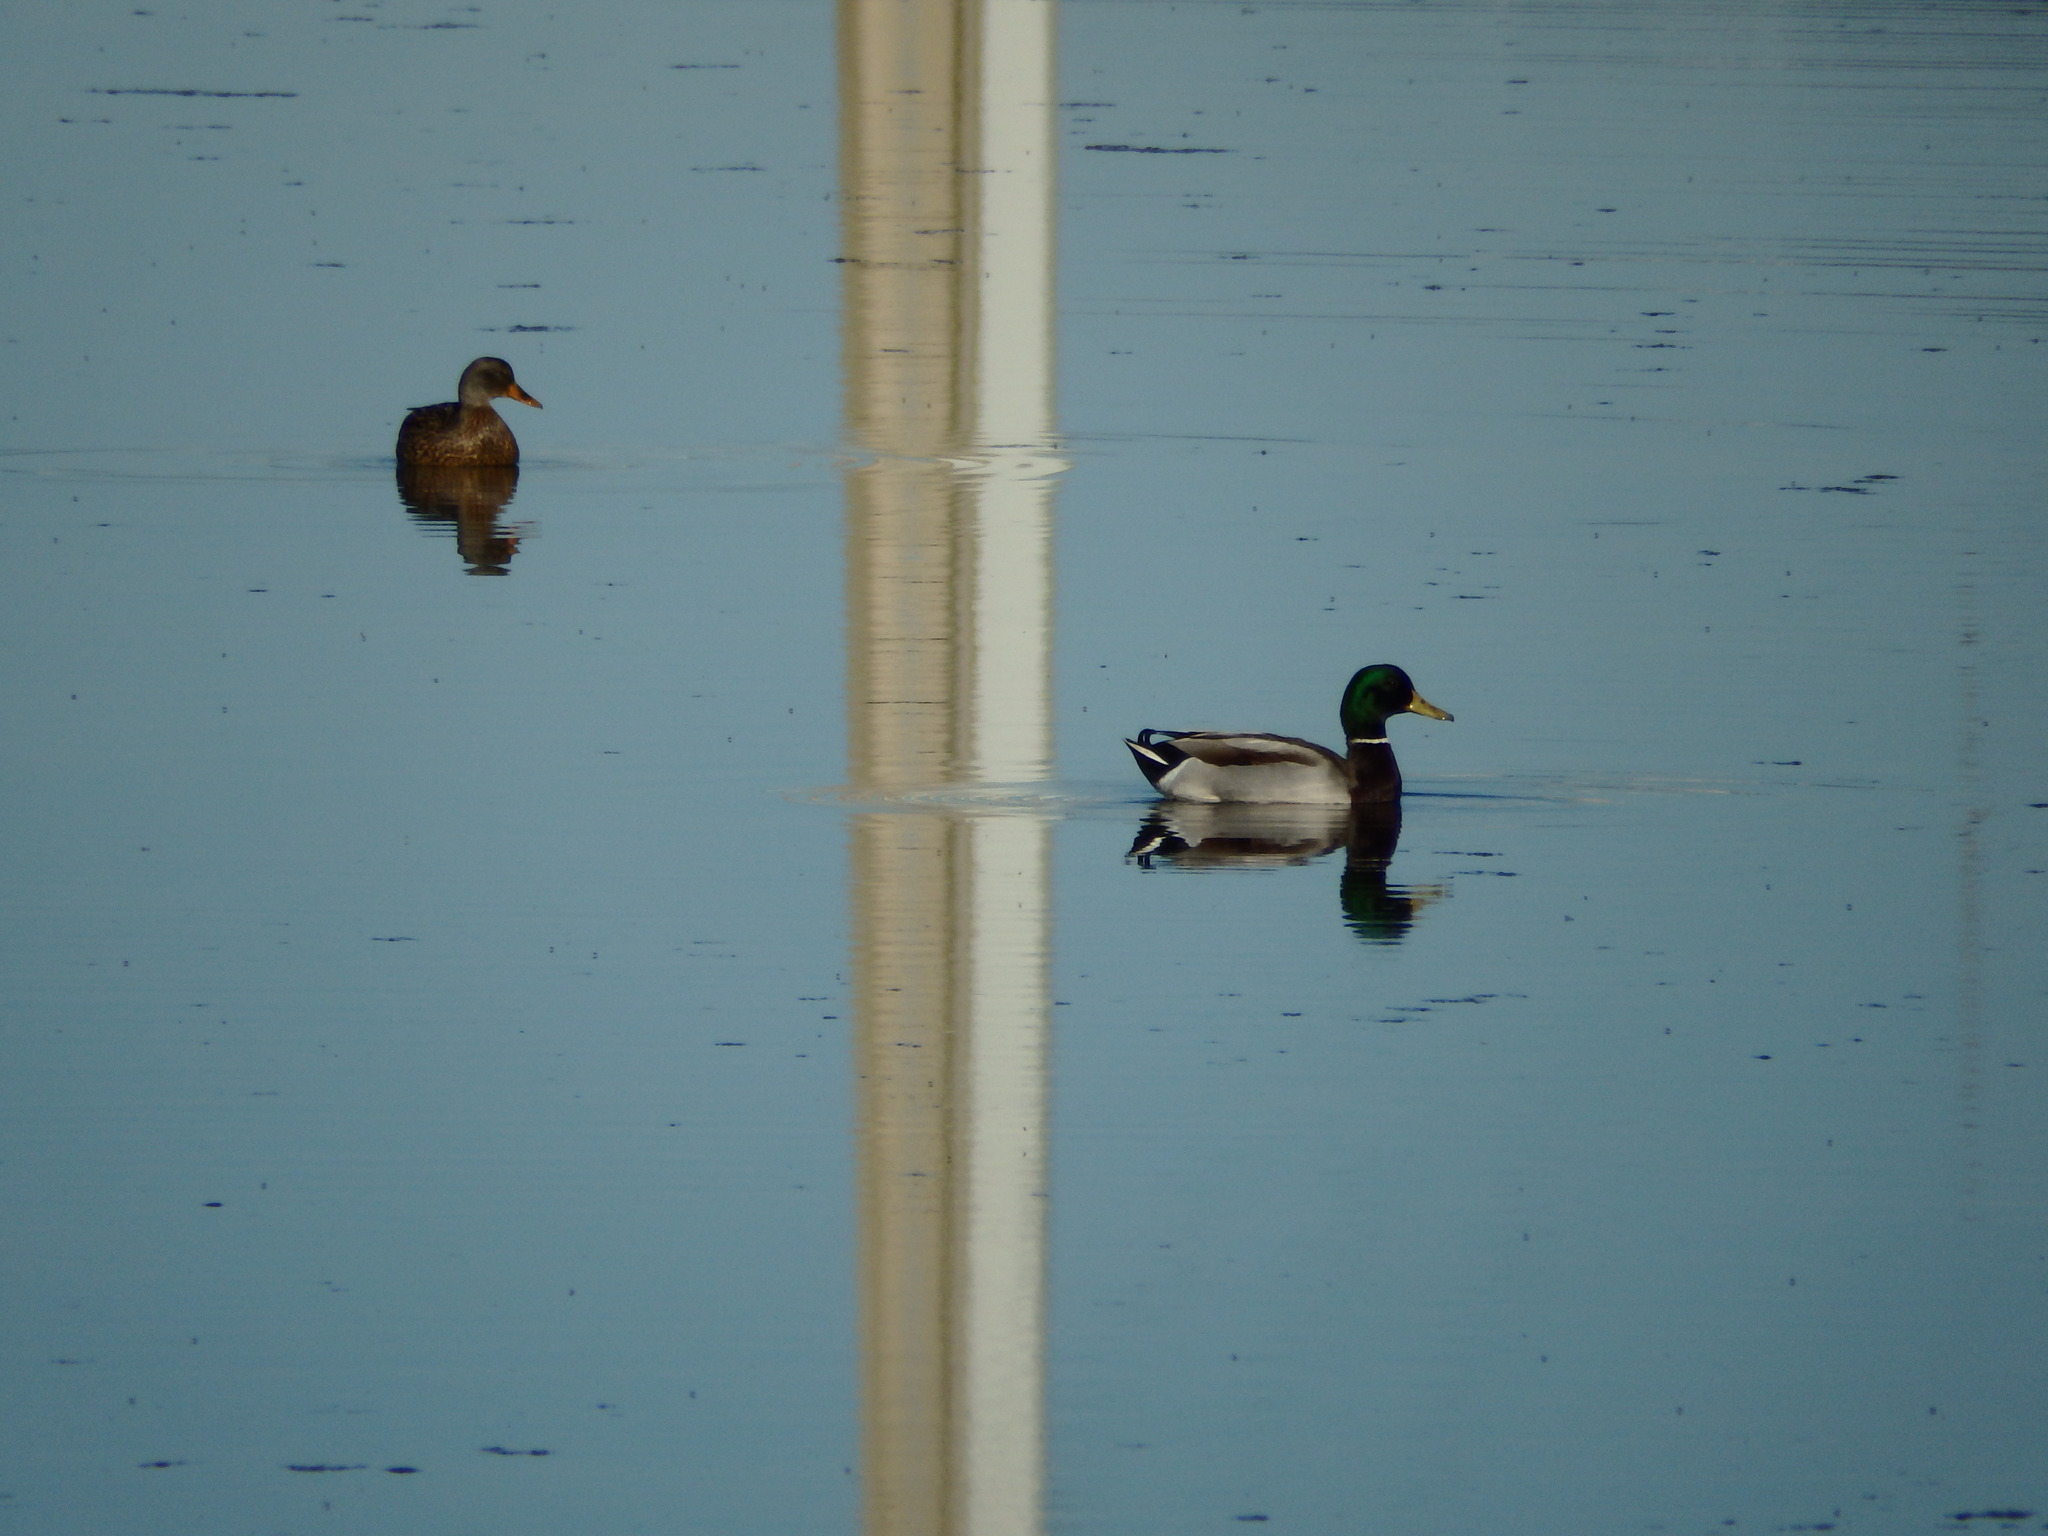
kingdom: Animalia
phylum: Chordata
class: Aves
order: Anseriformes
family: Anatidae
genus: Anas
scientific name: Anas platyrhynchos
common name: Mallard
